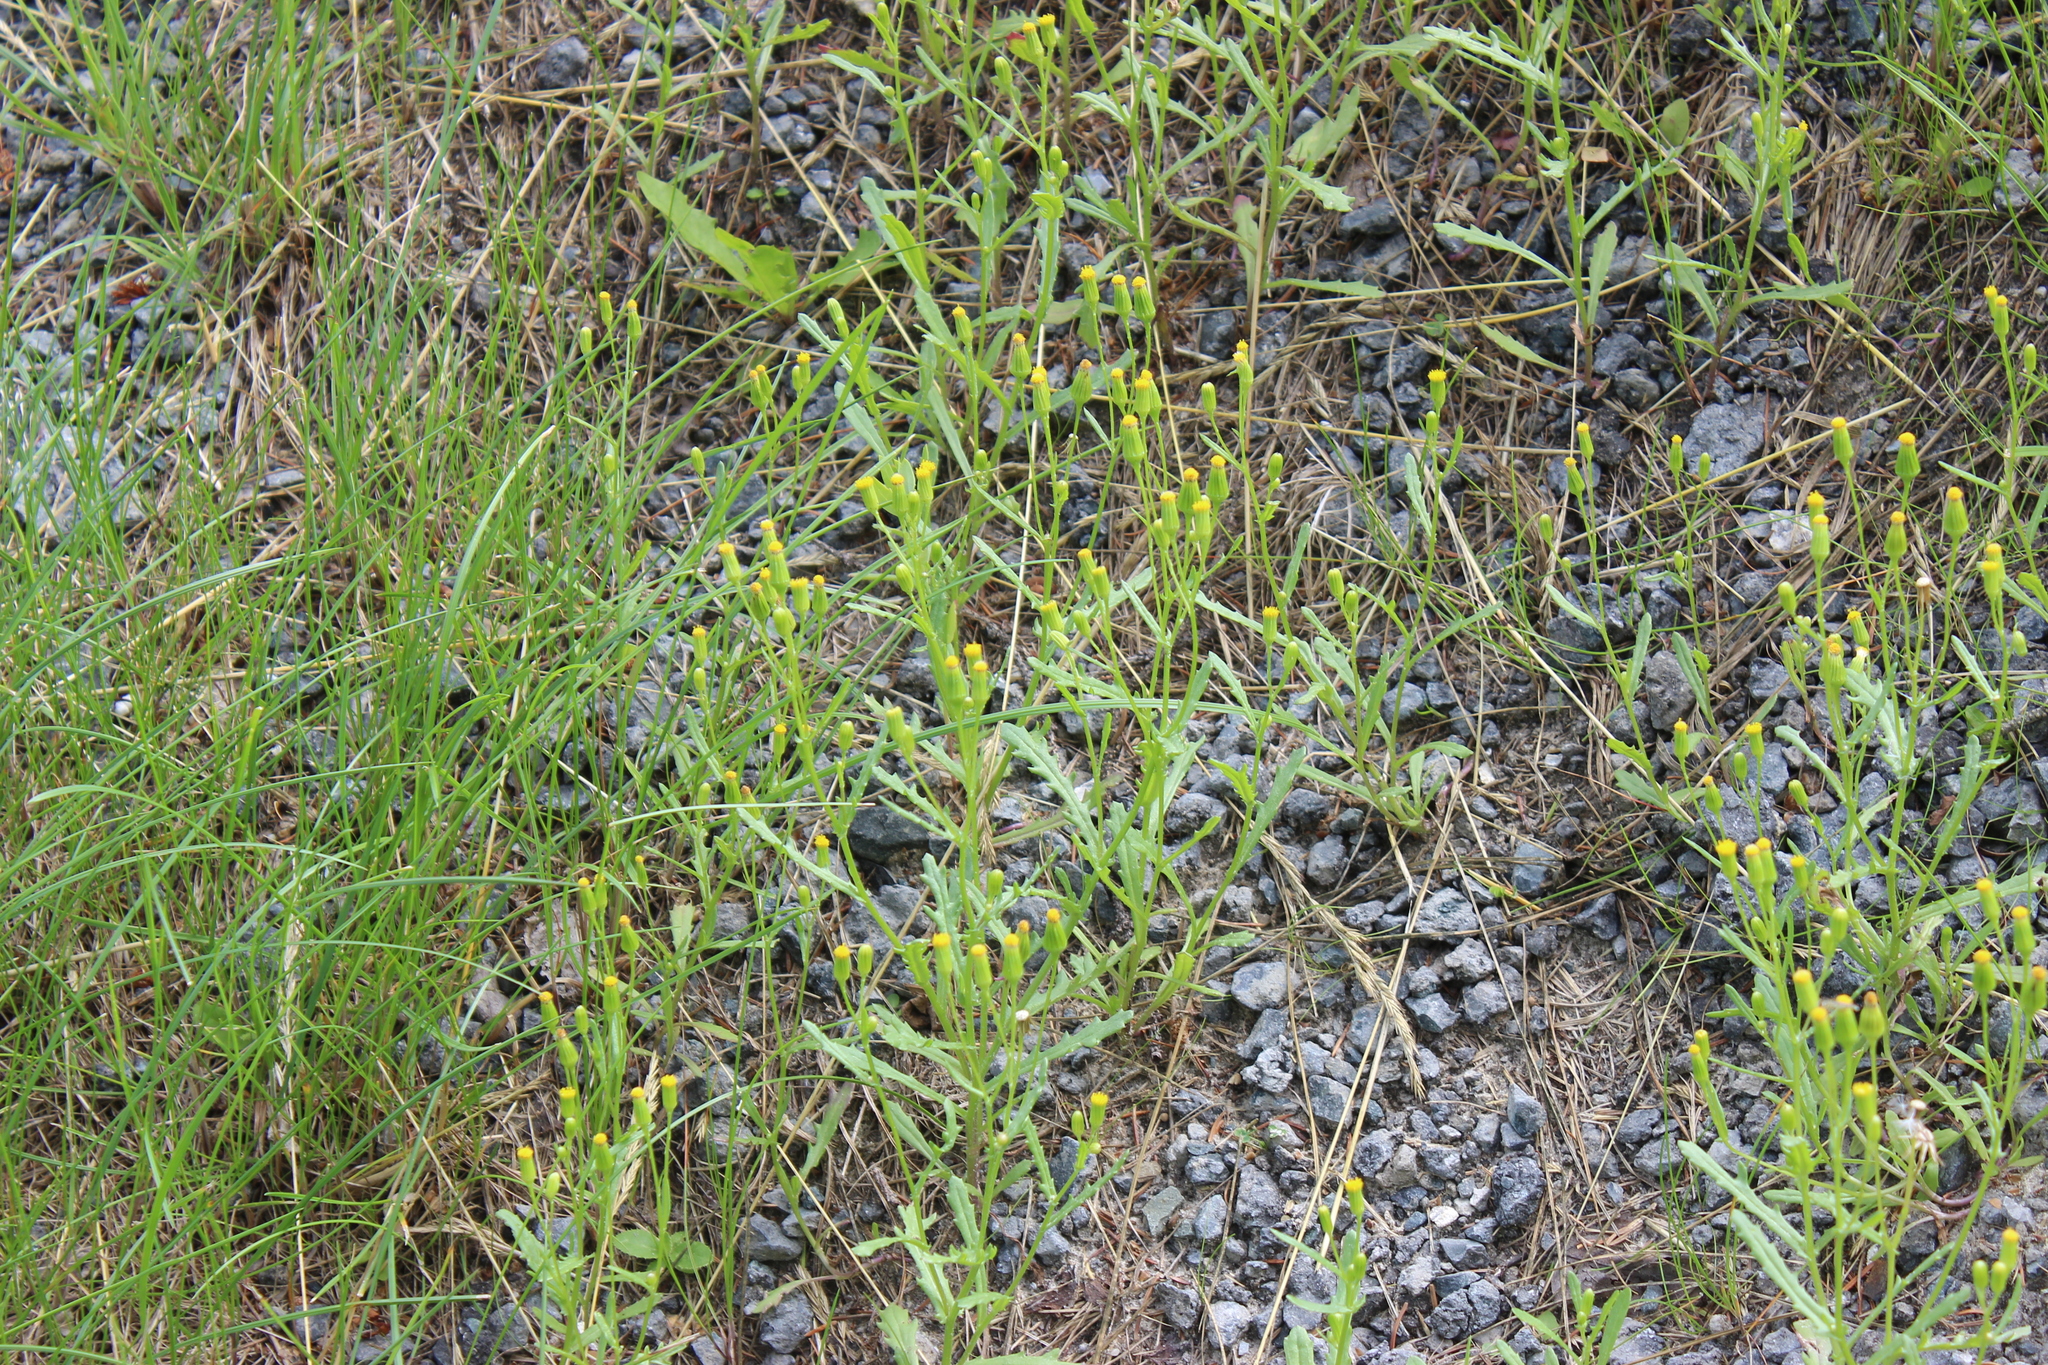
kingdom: Plantae
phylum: Tracheophyta
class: Magnoliopsida
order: Asterales
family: Asteraceae
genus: Senecio
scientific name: Senecio dubitabilis
